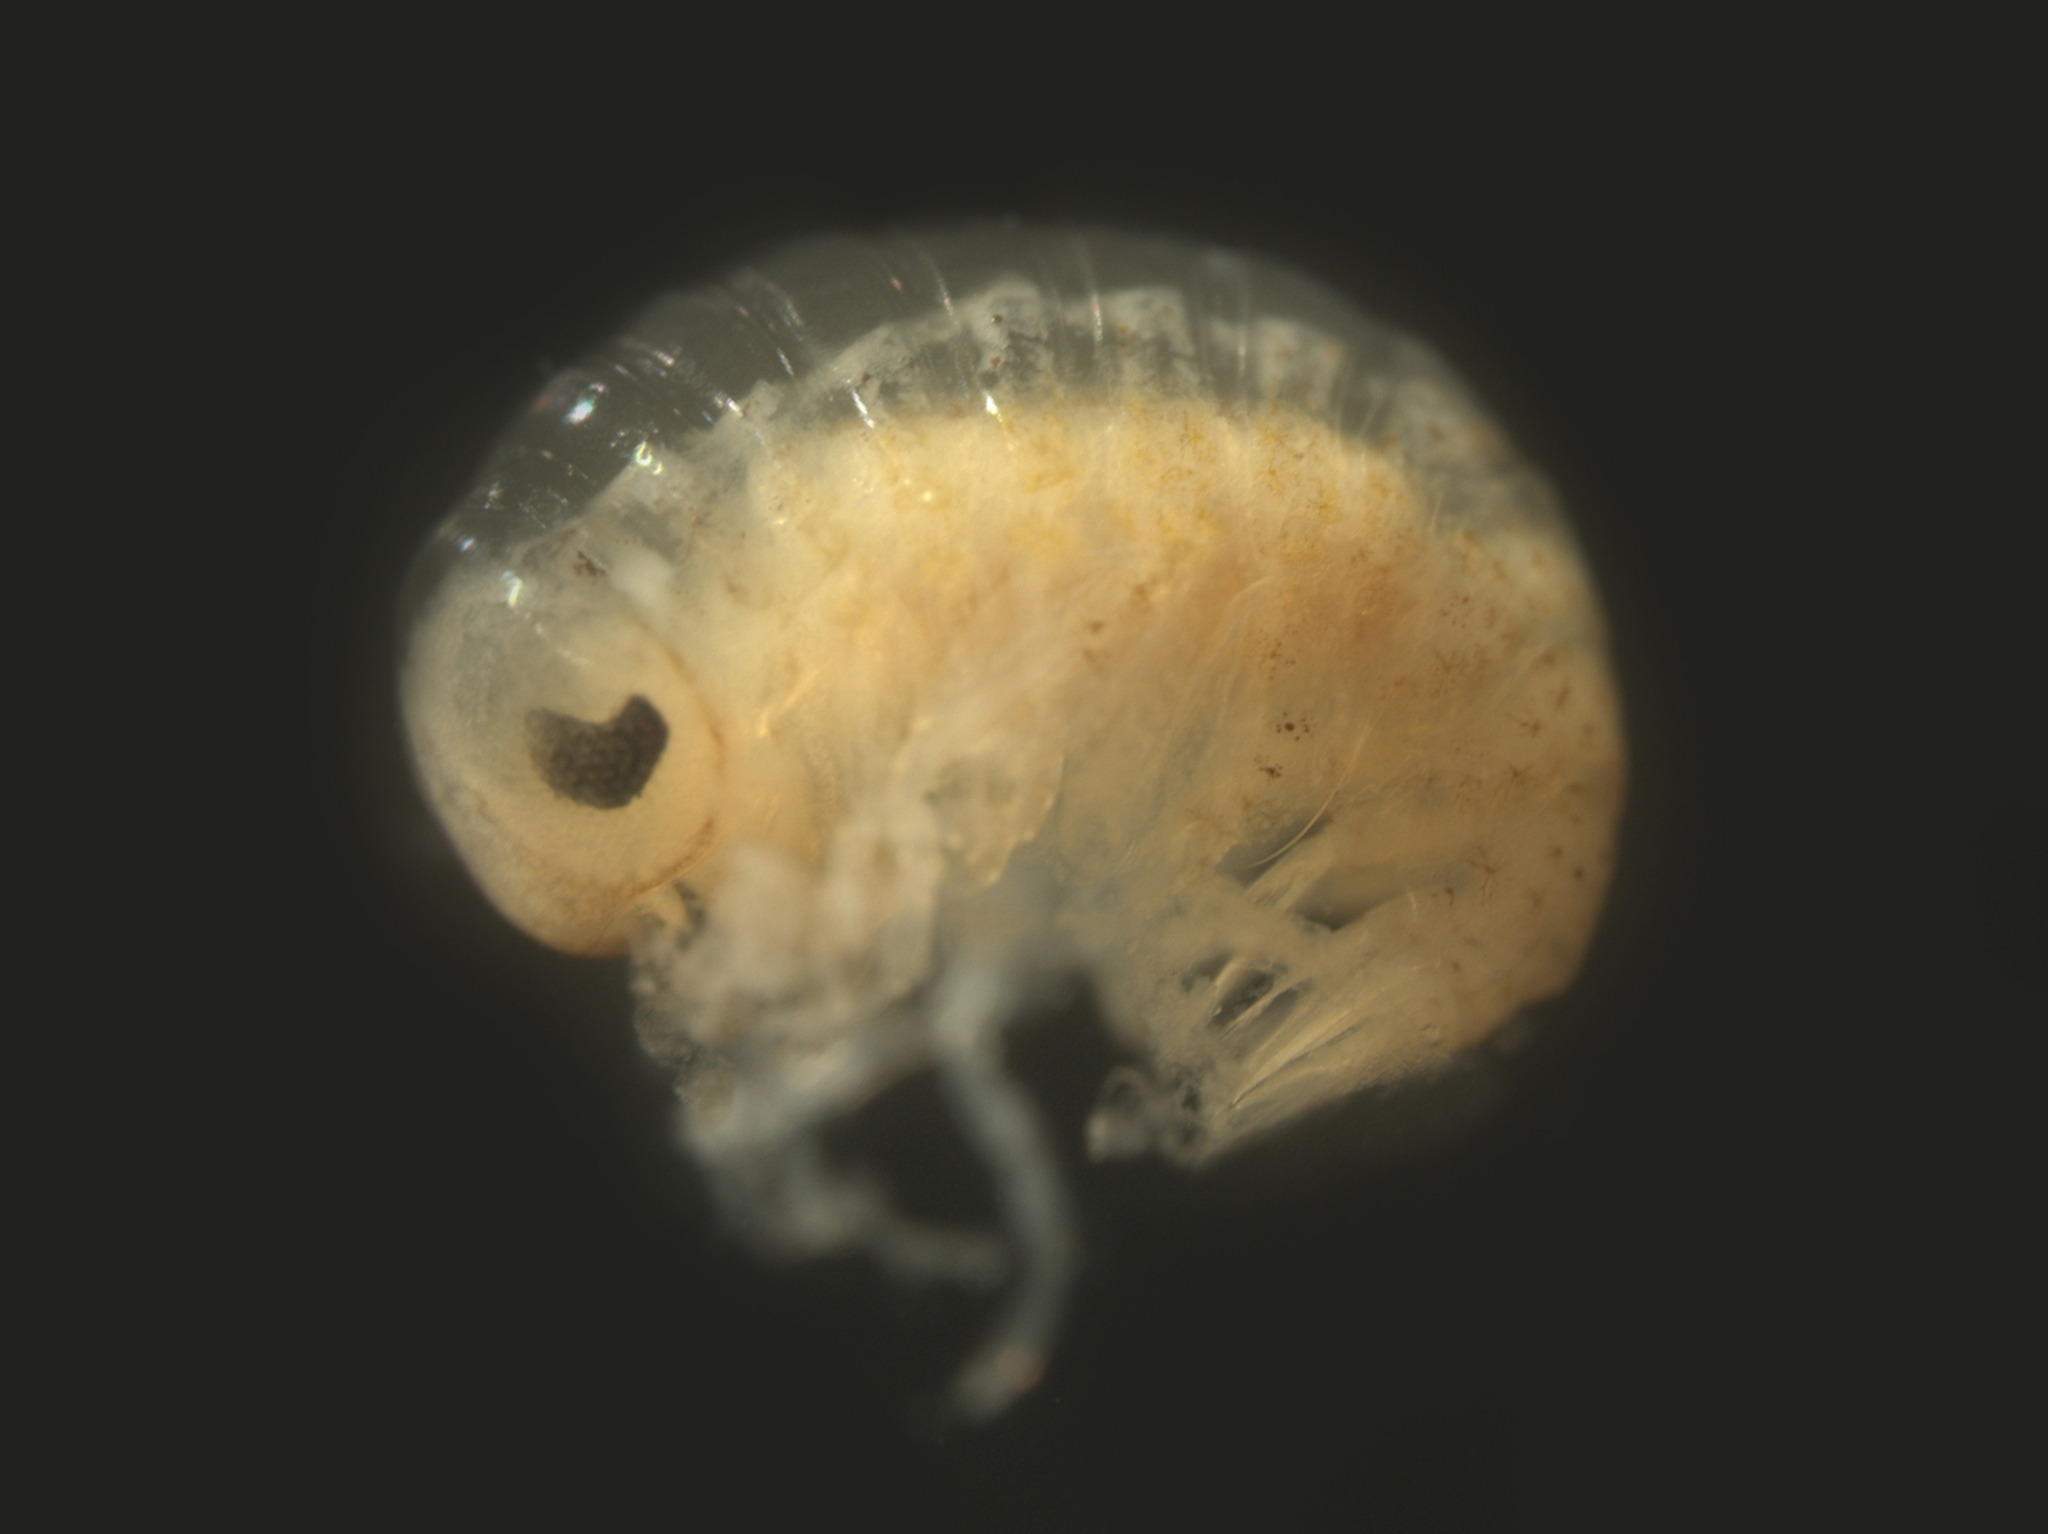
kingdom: Animalia
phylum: Arthropoda
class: Malacostraca
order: Amphipoda
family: Brachyscelidae
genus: Brachyscelus
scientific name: Brachyscelus rapacoides
